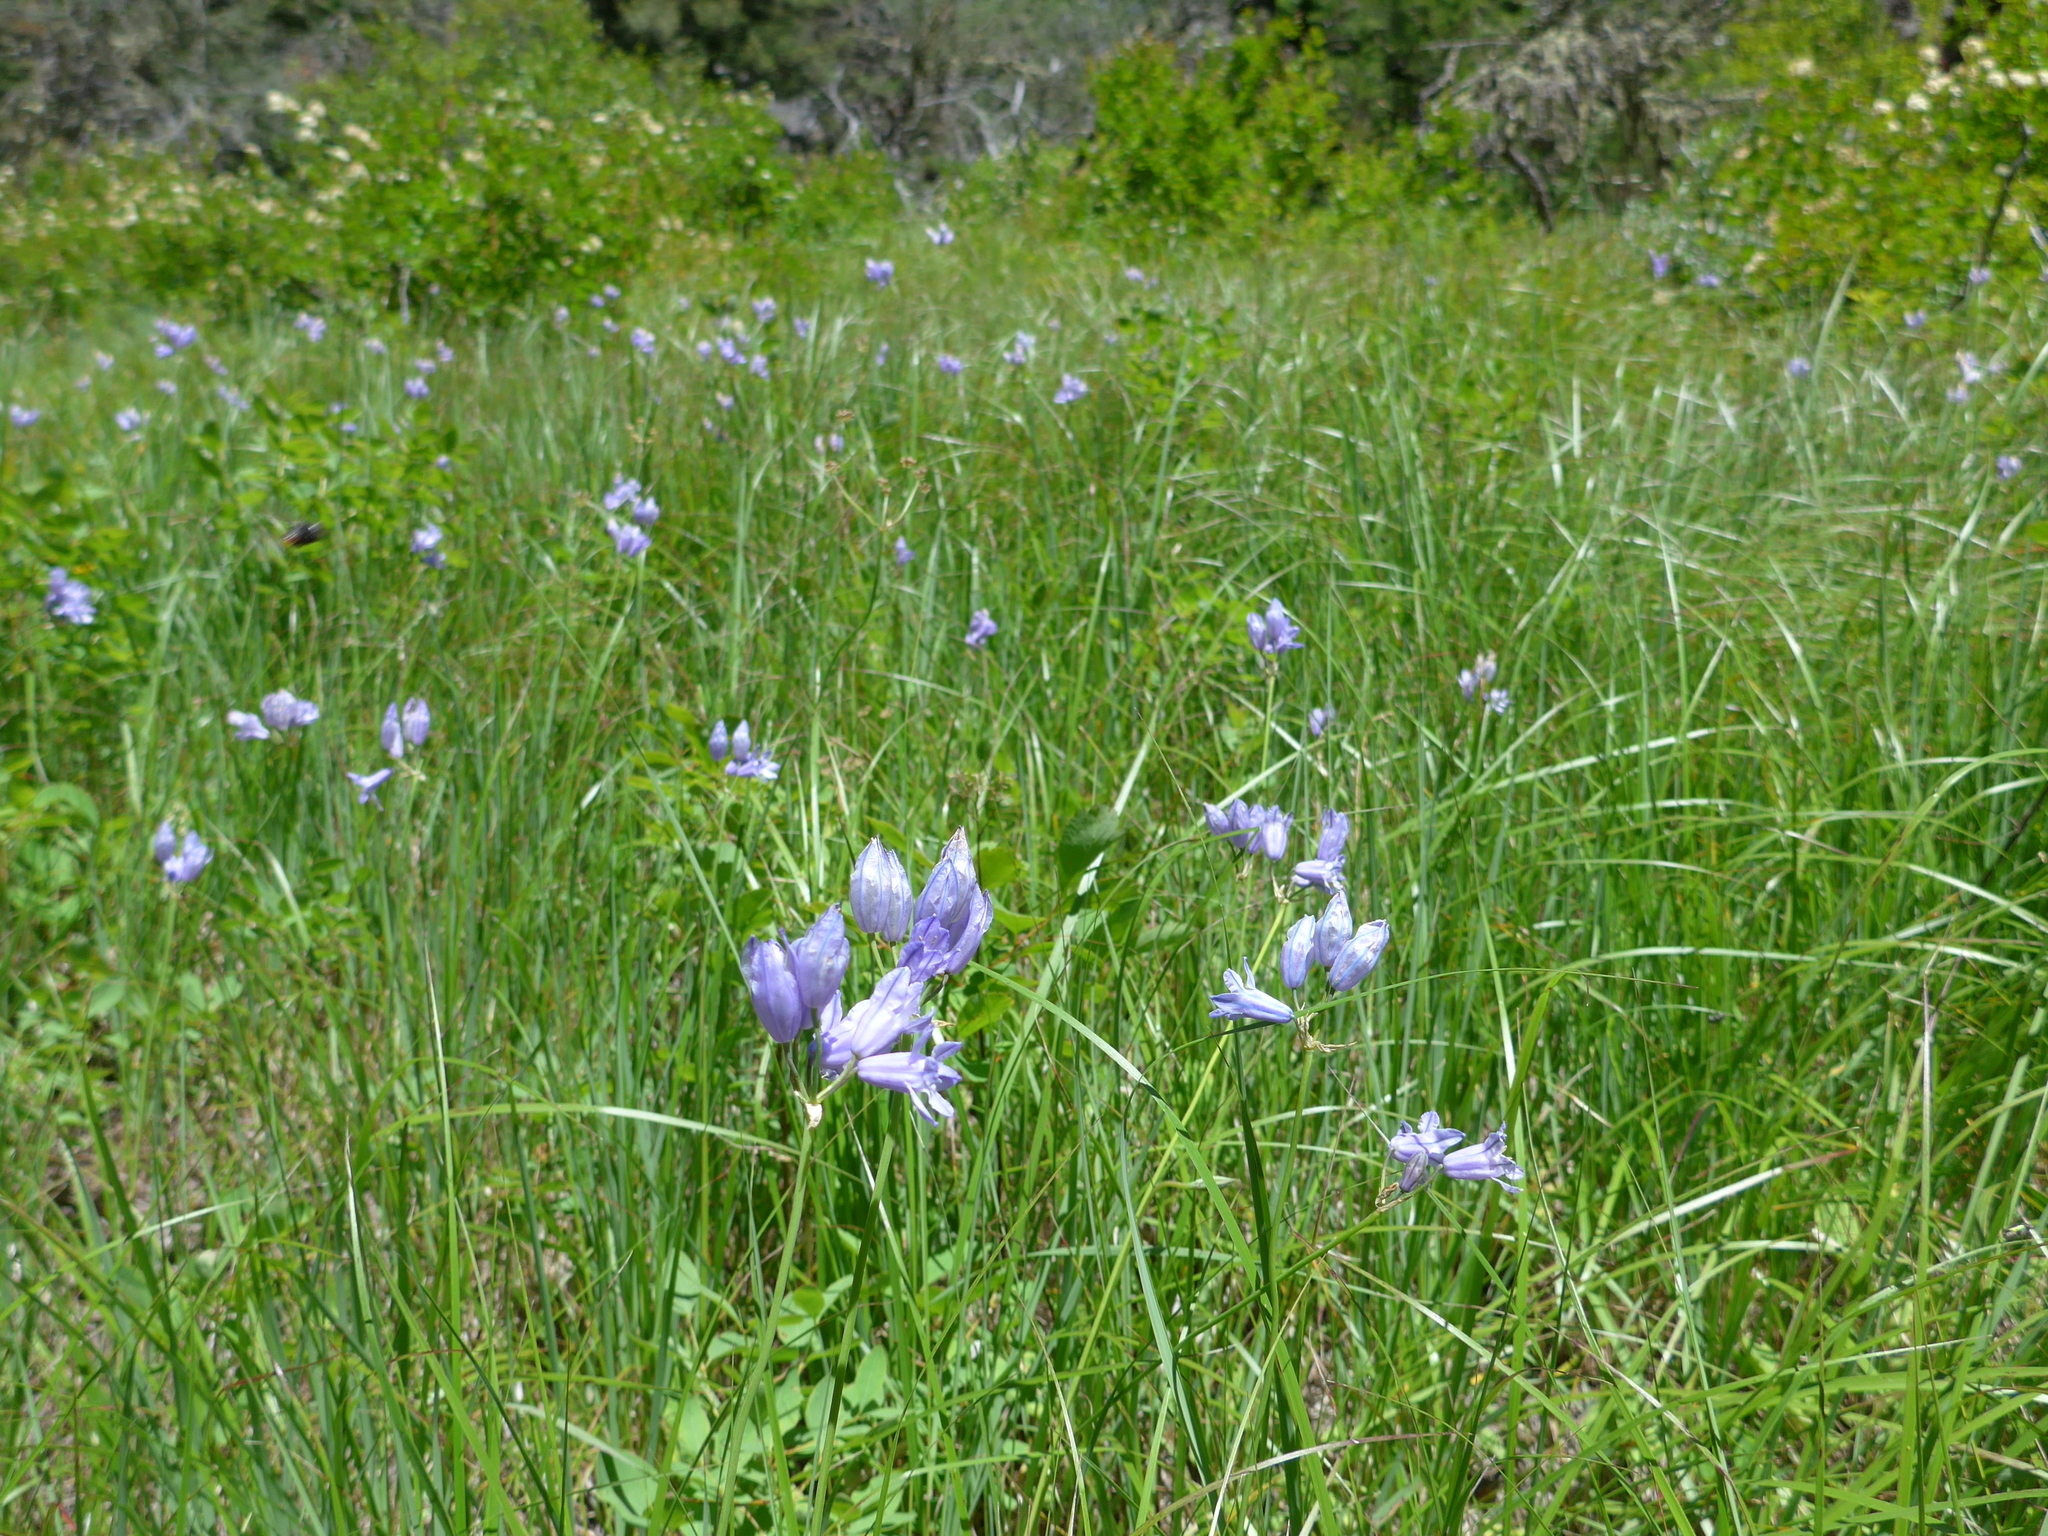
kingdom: Plantae
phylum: Tracheophyta
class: Liliopsida
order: Asparagales
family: Asparagaceae
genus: Triteleia
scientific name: Triteleia grandiflora
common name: Wild hyacinth
